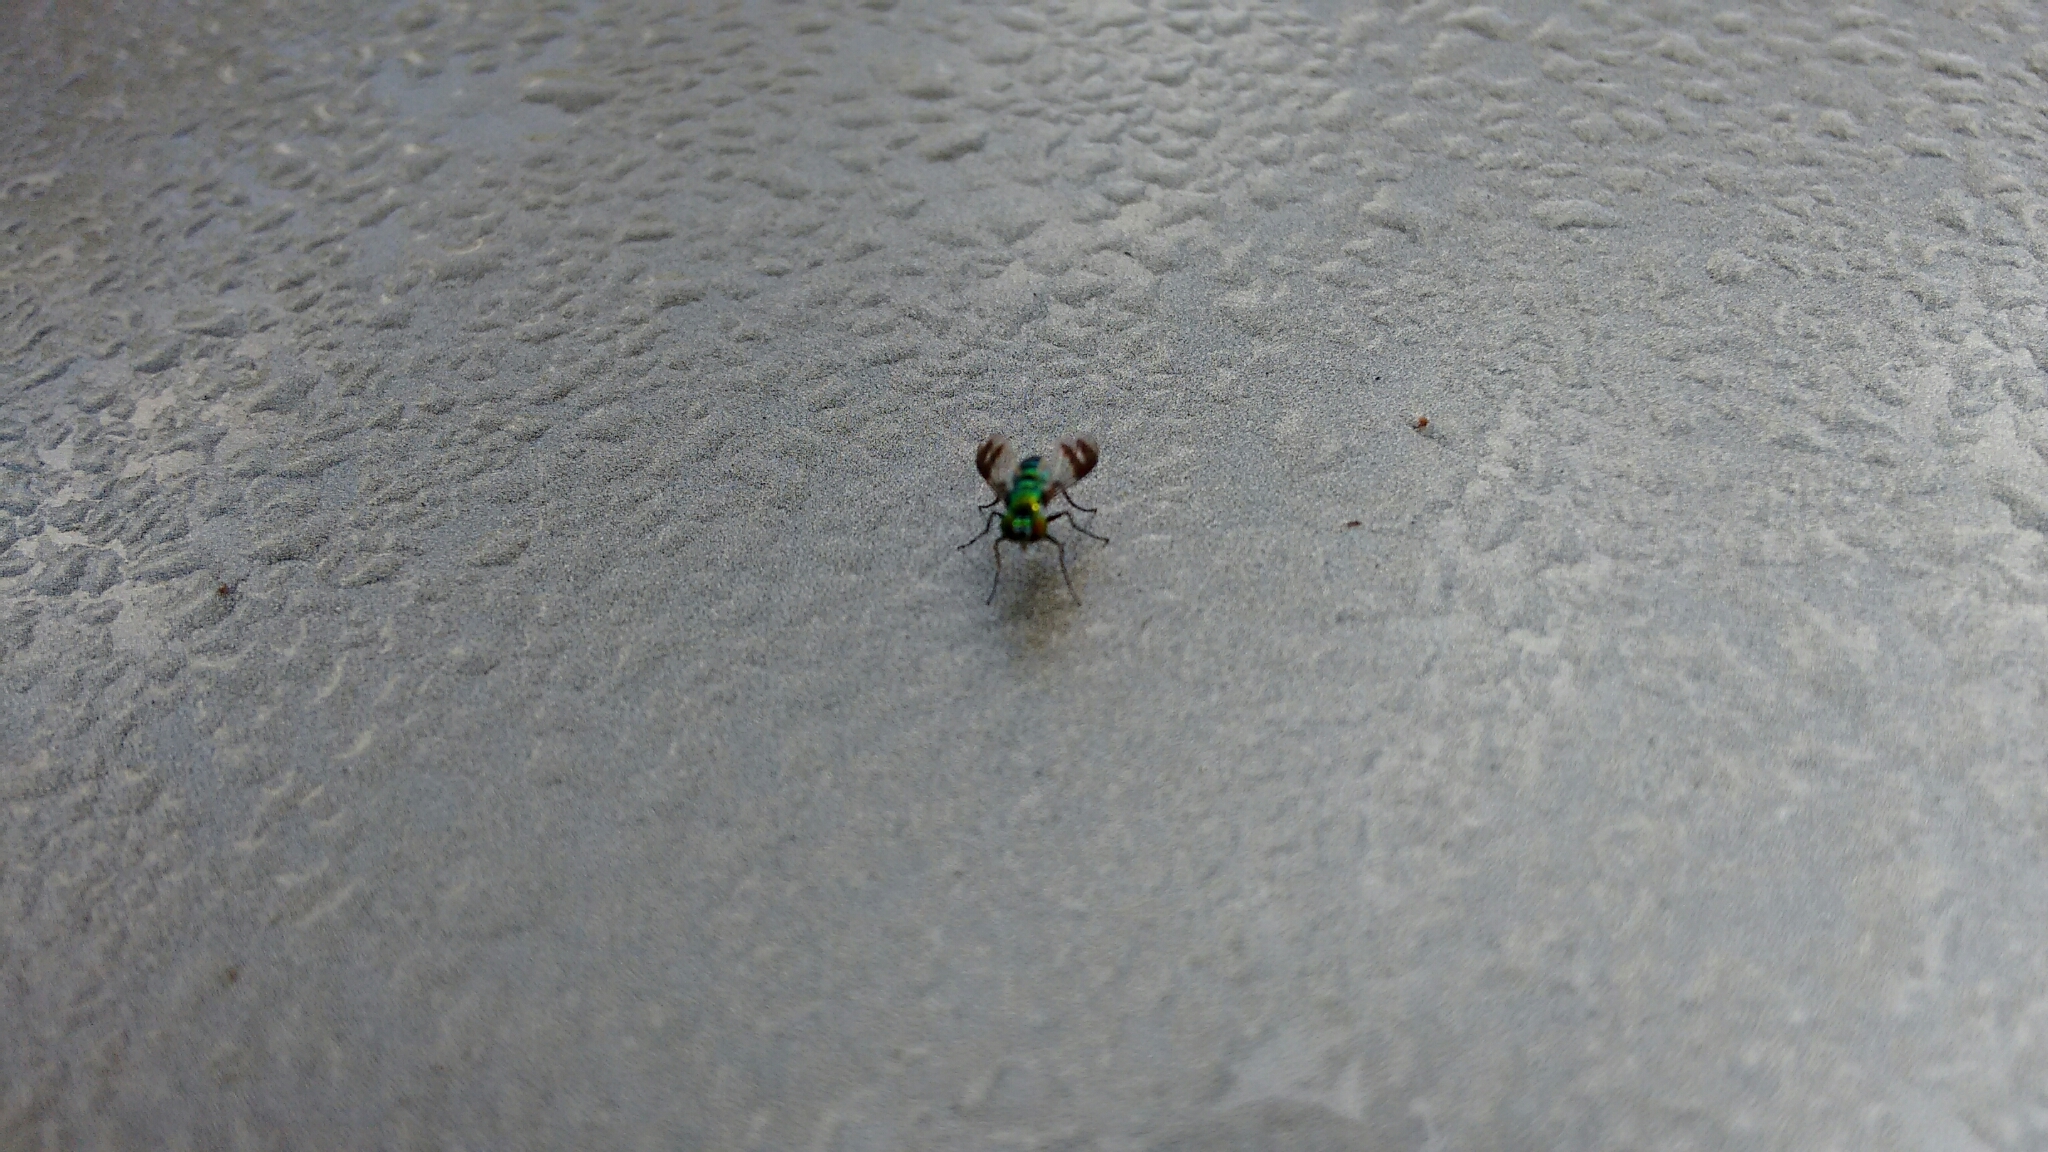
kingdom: Animalia
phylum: Arthropoda
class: Insecta
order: Diptera
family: Dolichopodidae
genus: Condylostylus
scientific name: Condylostylus patibulatus
